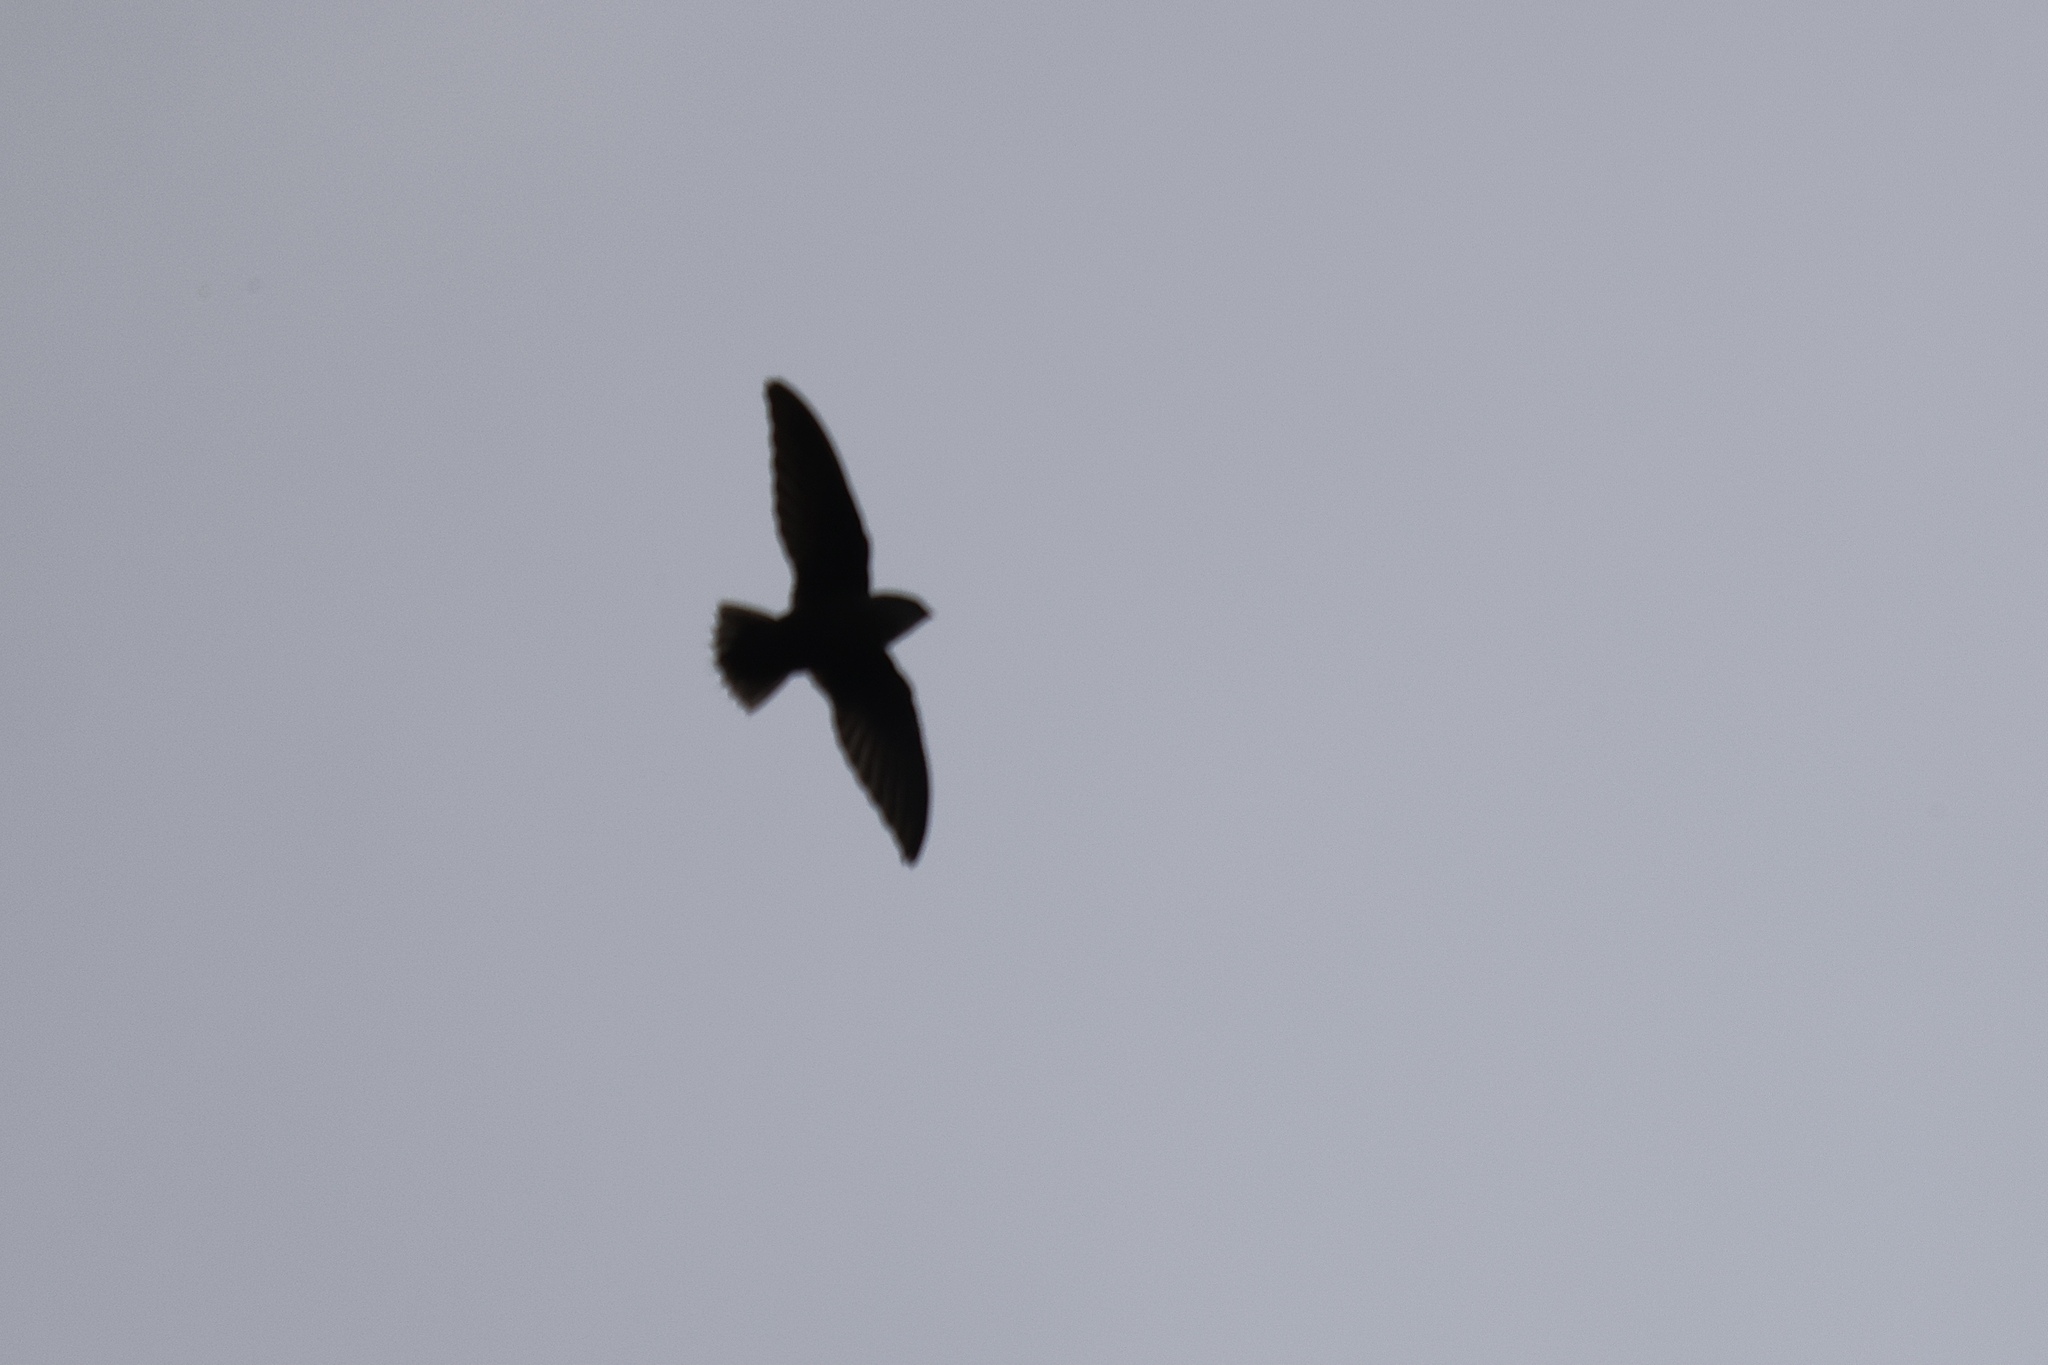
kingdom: Animalia
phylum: Chordata
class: Aves
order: Apodiformes
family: Apodidae
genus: Chaetura
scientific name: Chaetura pelagica
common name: Chimney swift
